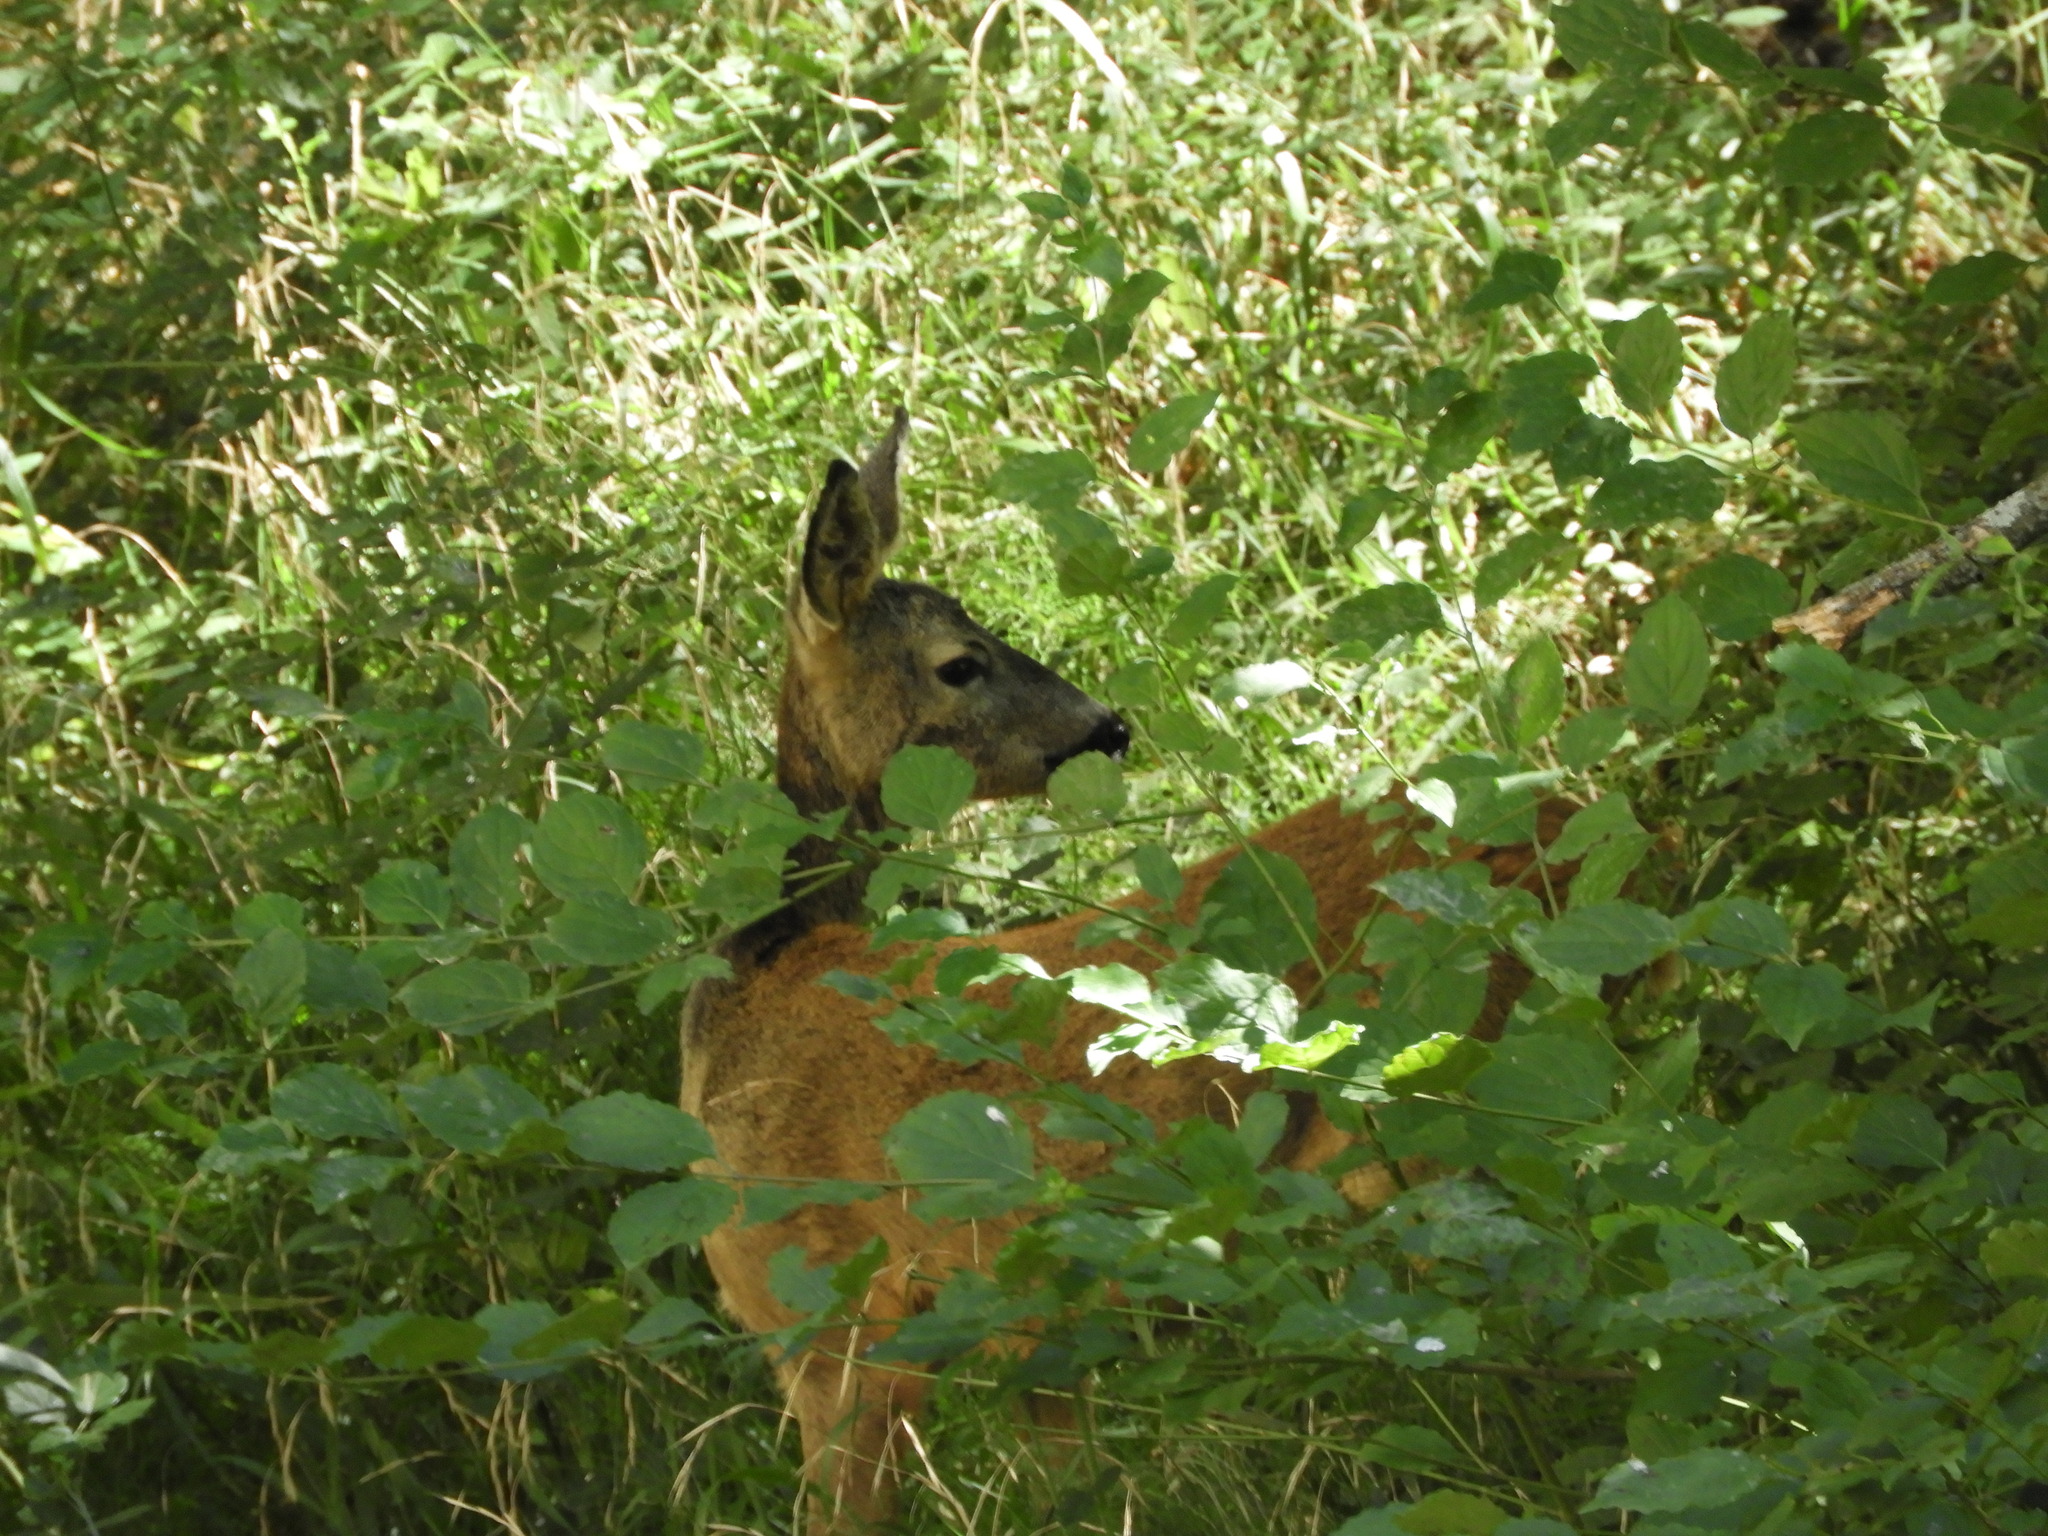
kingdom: Animalia
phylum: Chordata
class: Mammalia
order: Artiodactyla
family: Cervidae
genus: Capreolus
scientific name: Capreolus capreolus
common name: Western roe deer
